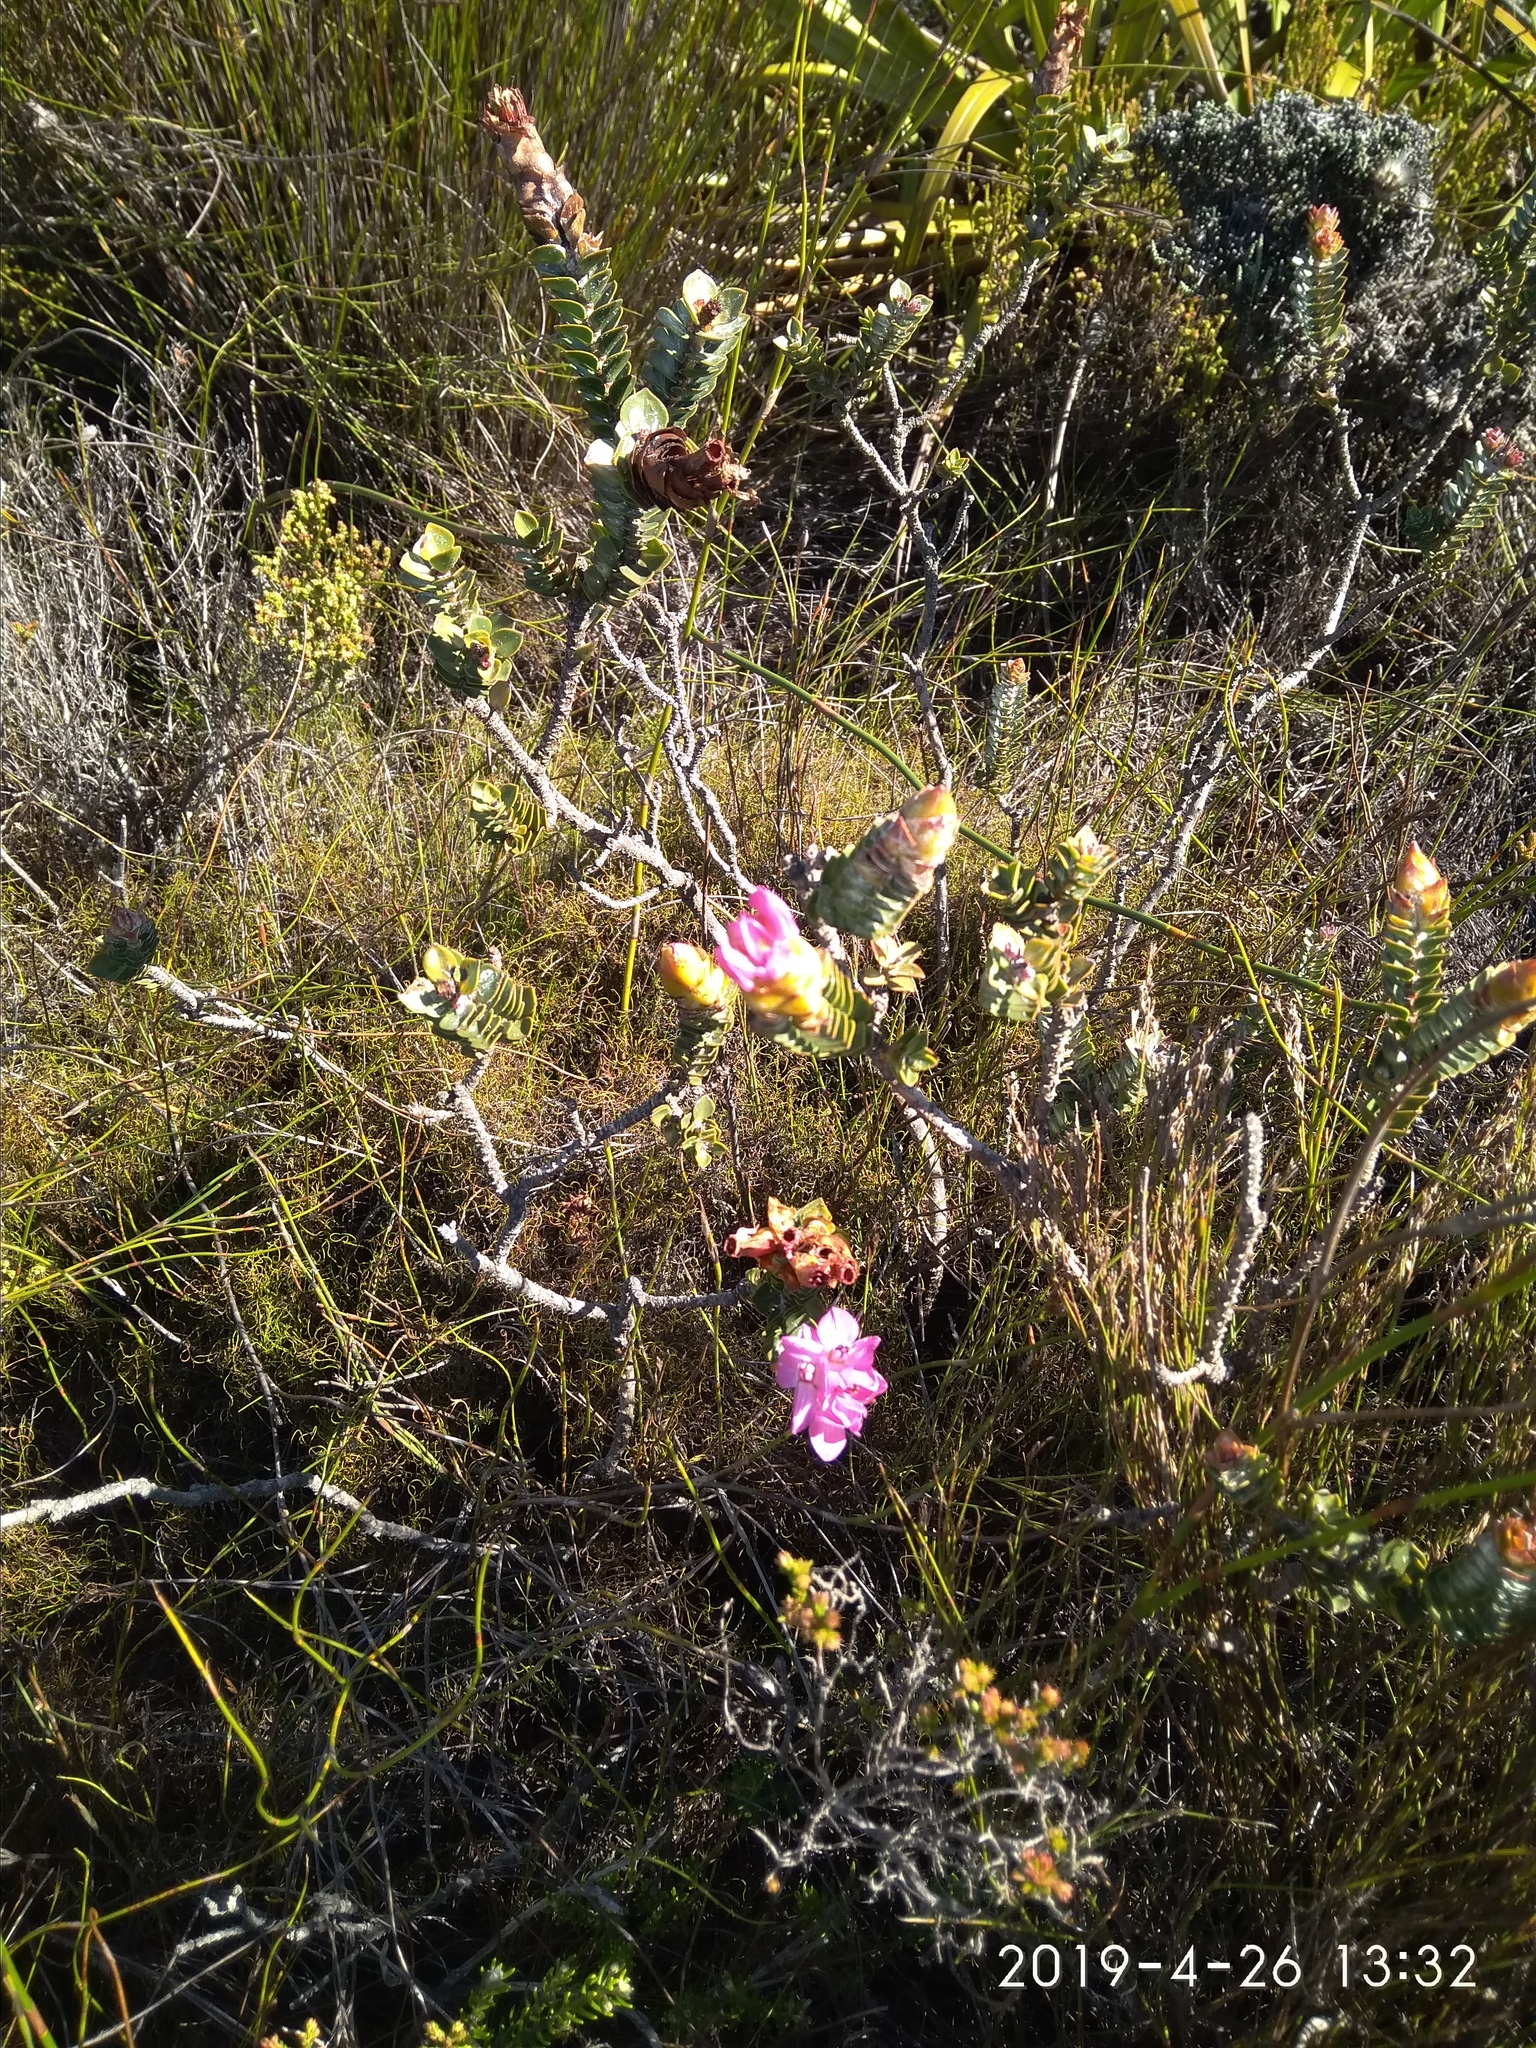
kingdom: Plantae
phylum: Tracheophyta
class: Magnoliopsida
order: Myrtales
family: Penaeaceae
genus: Saltera
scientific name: Saltera sarcocolla
